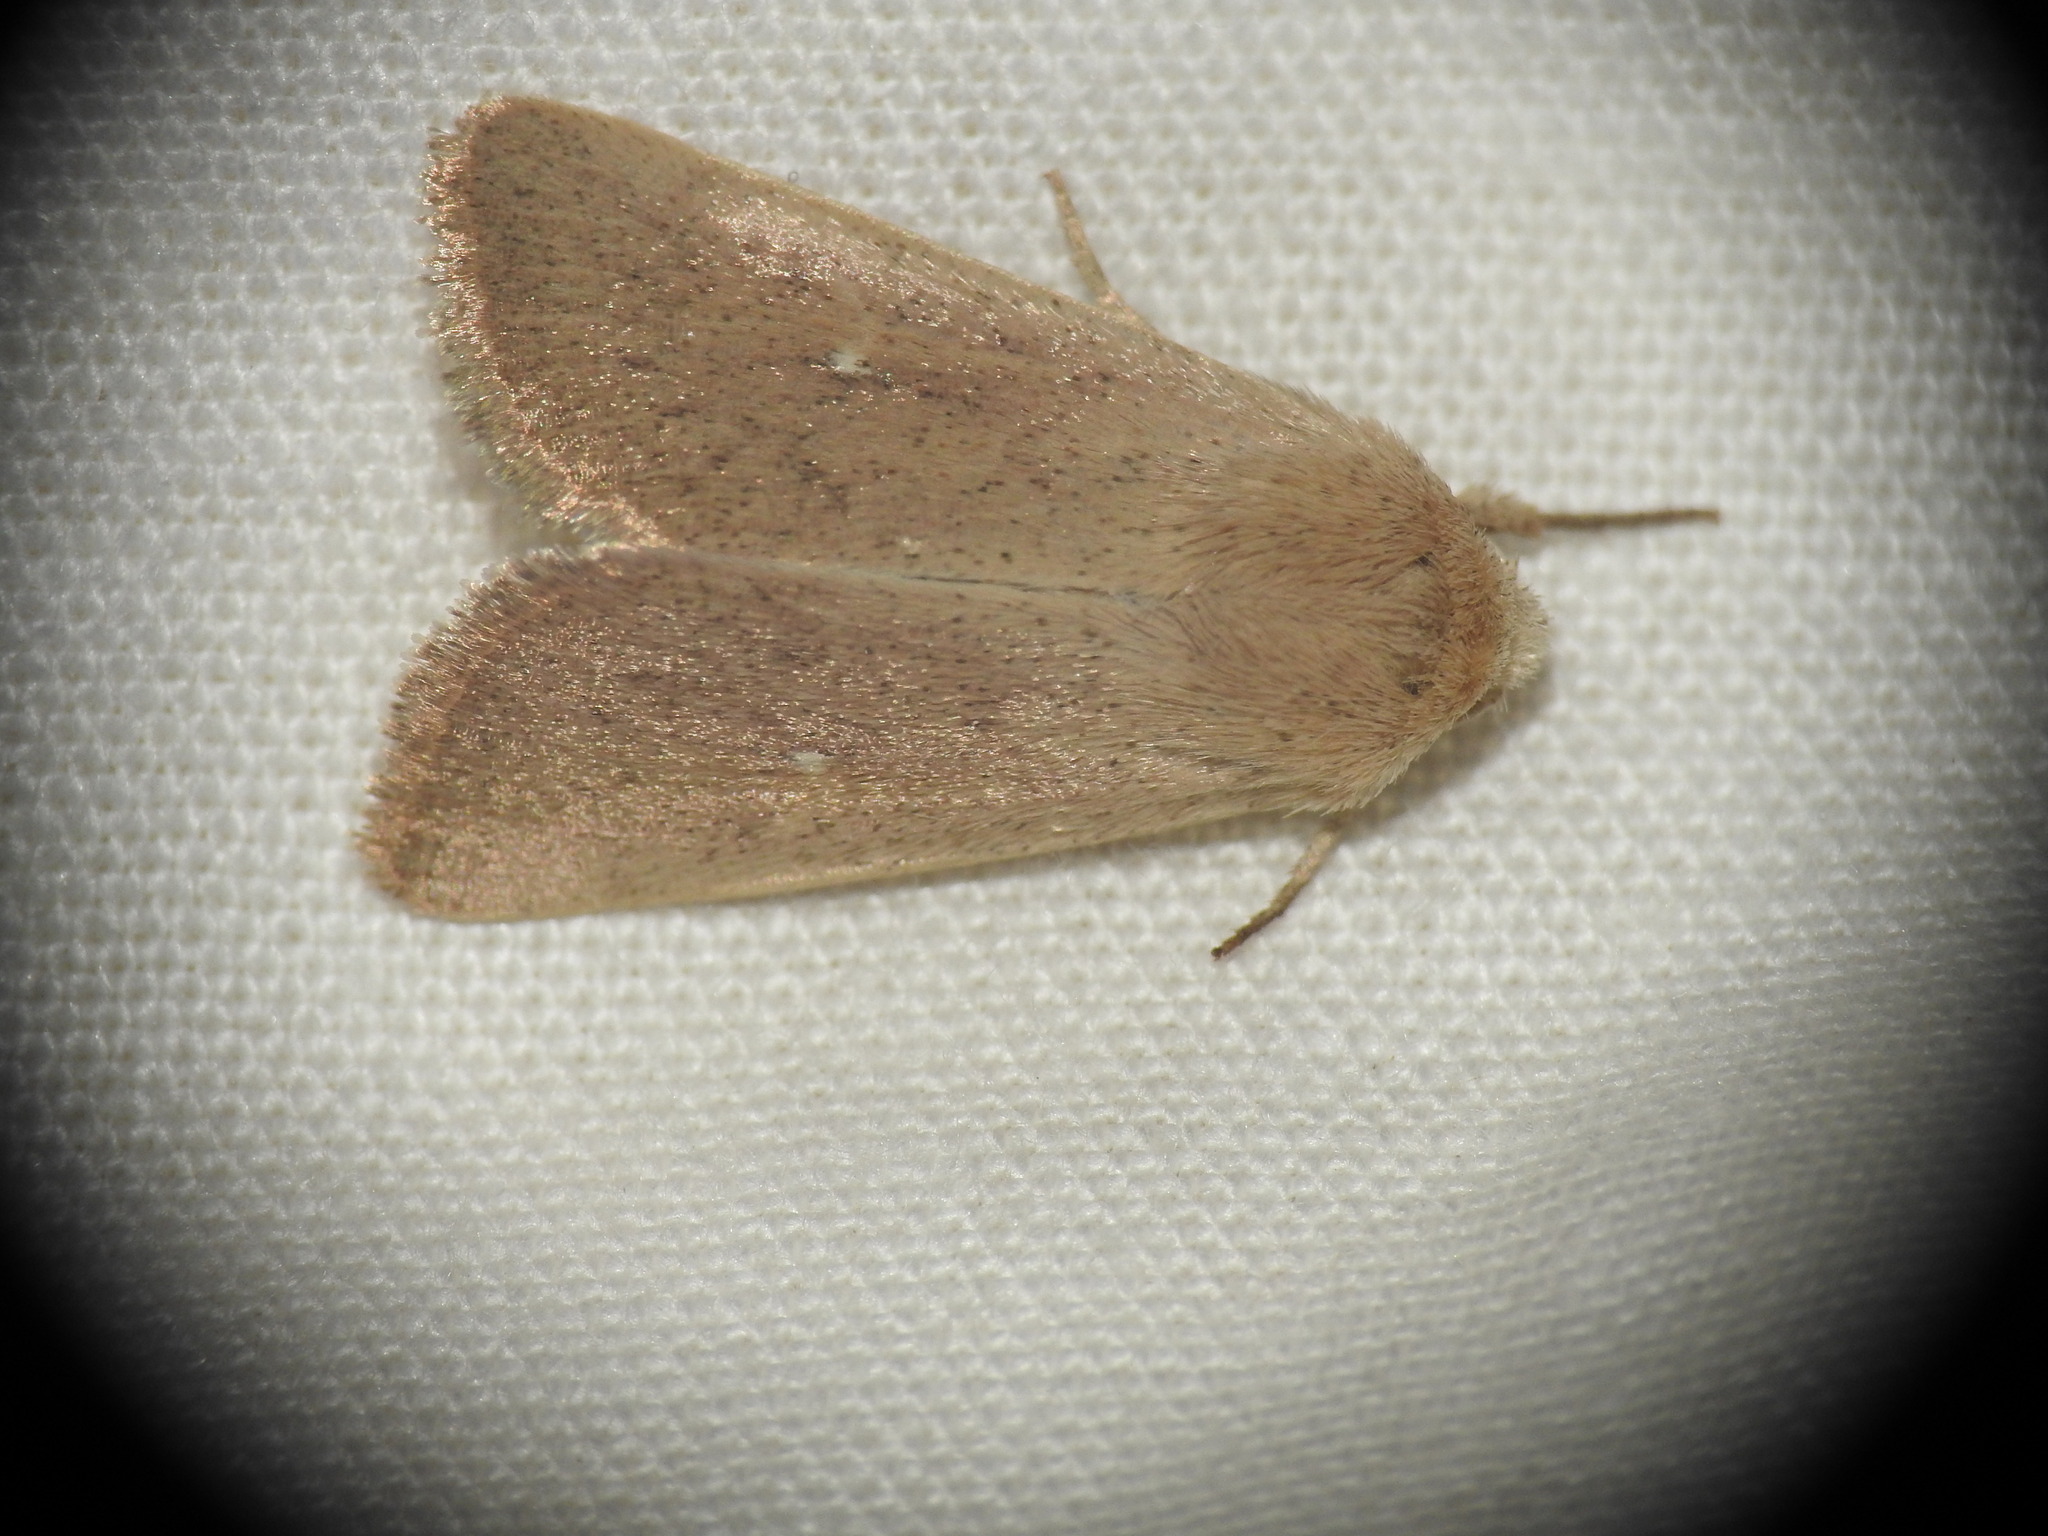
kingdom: Animalia
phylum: Arthropoda
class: Insecta
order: Lepidoptera
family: Noctuidae
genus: Mythimna
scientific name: Mythimna sicula
